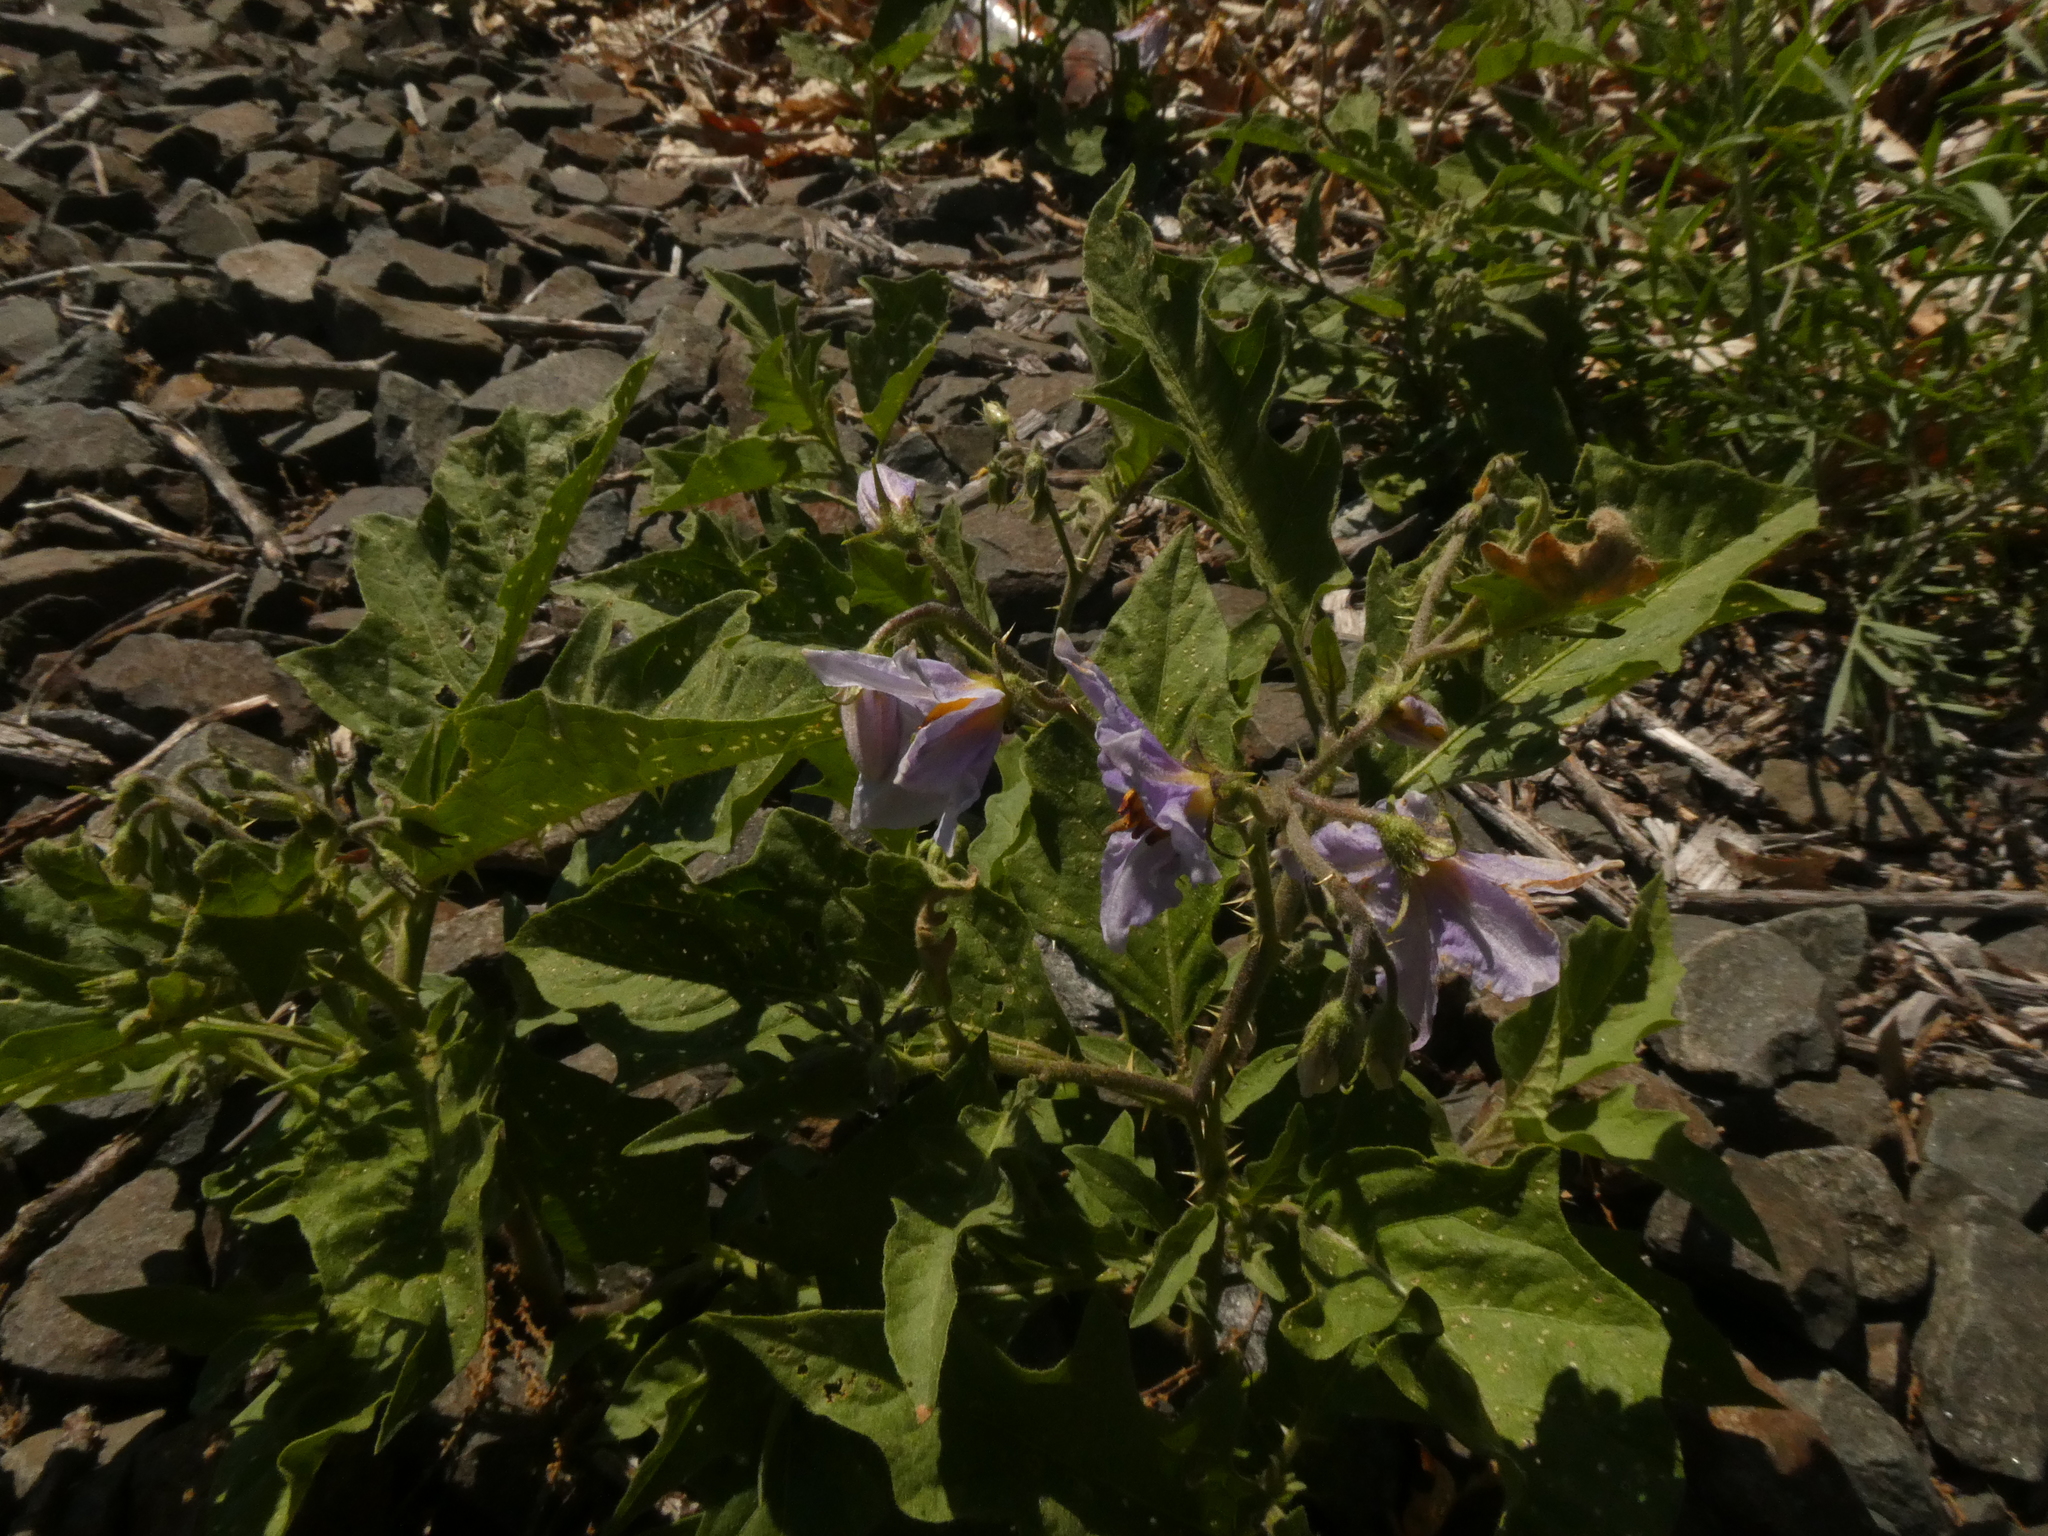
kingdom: Plantae
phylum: Tracheophyta
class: Magnoliopsida
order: Solanales
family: Solanaceae
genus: Solanum
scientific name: Solanum carolinense
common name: Horse-nettle
